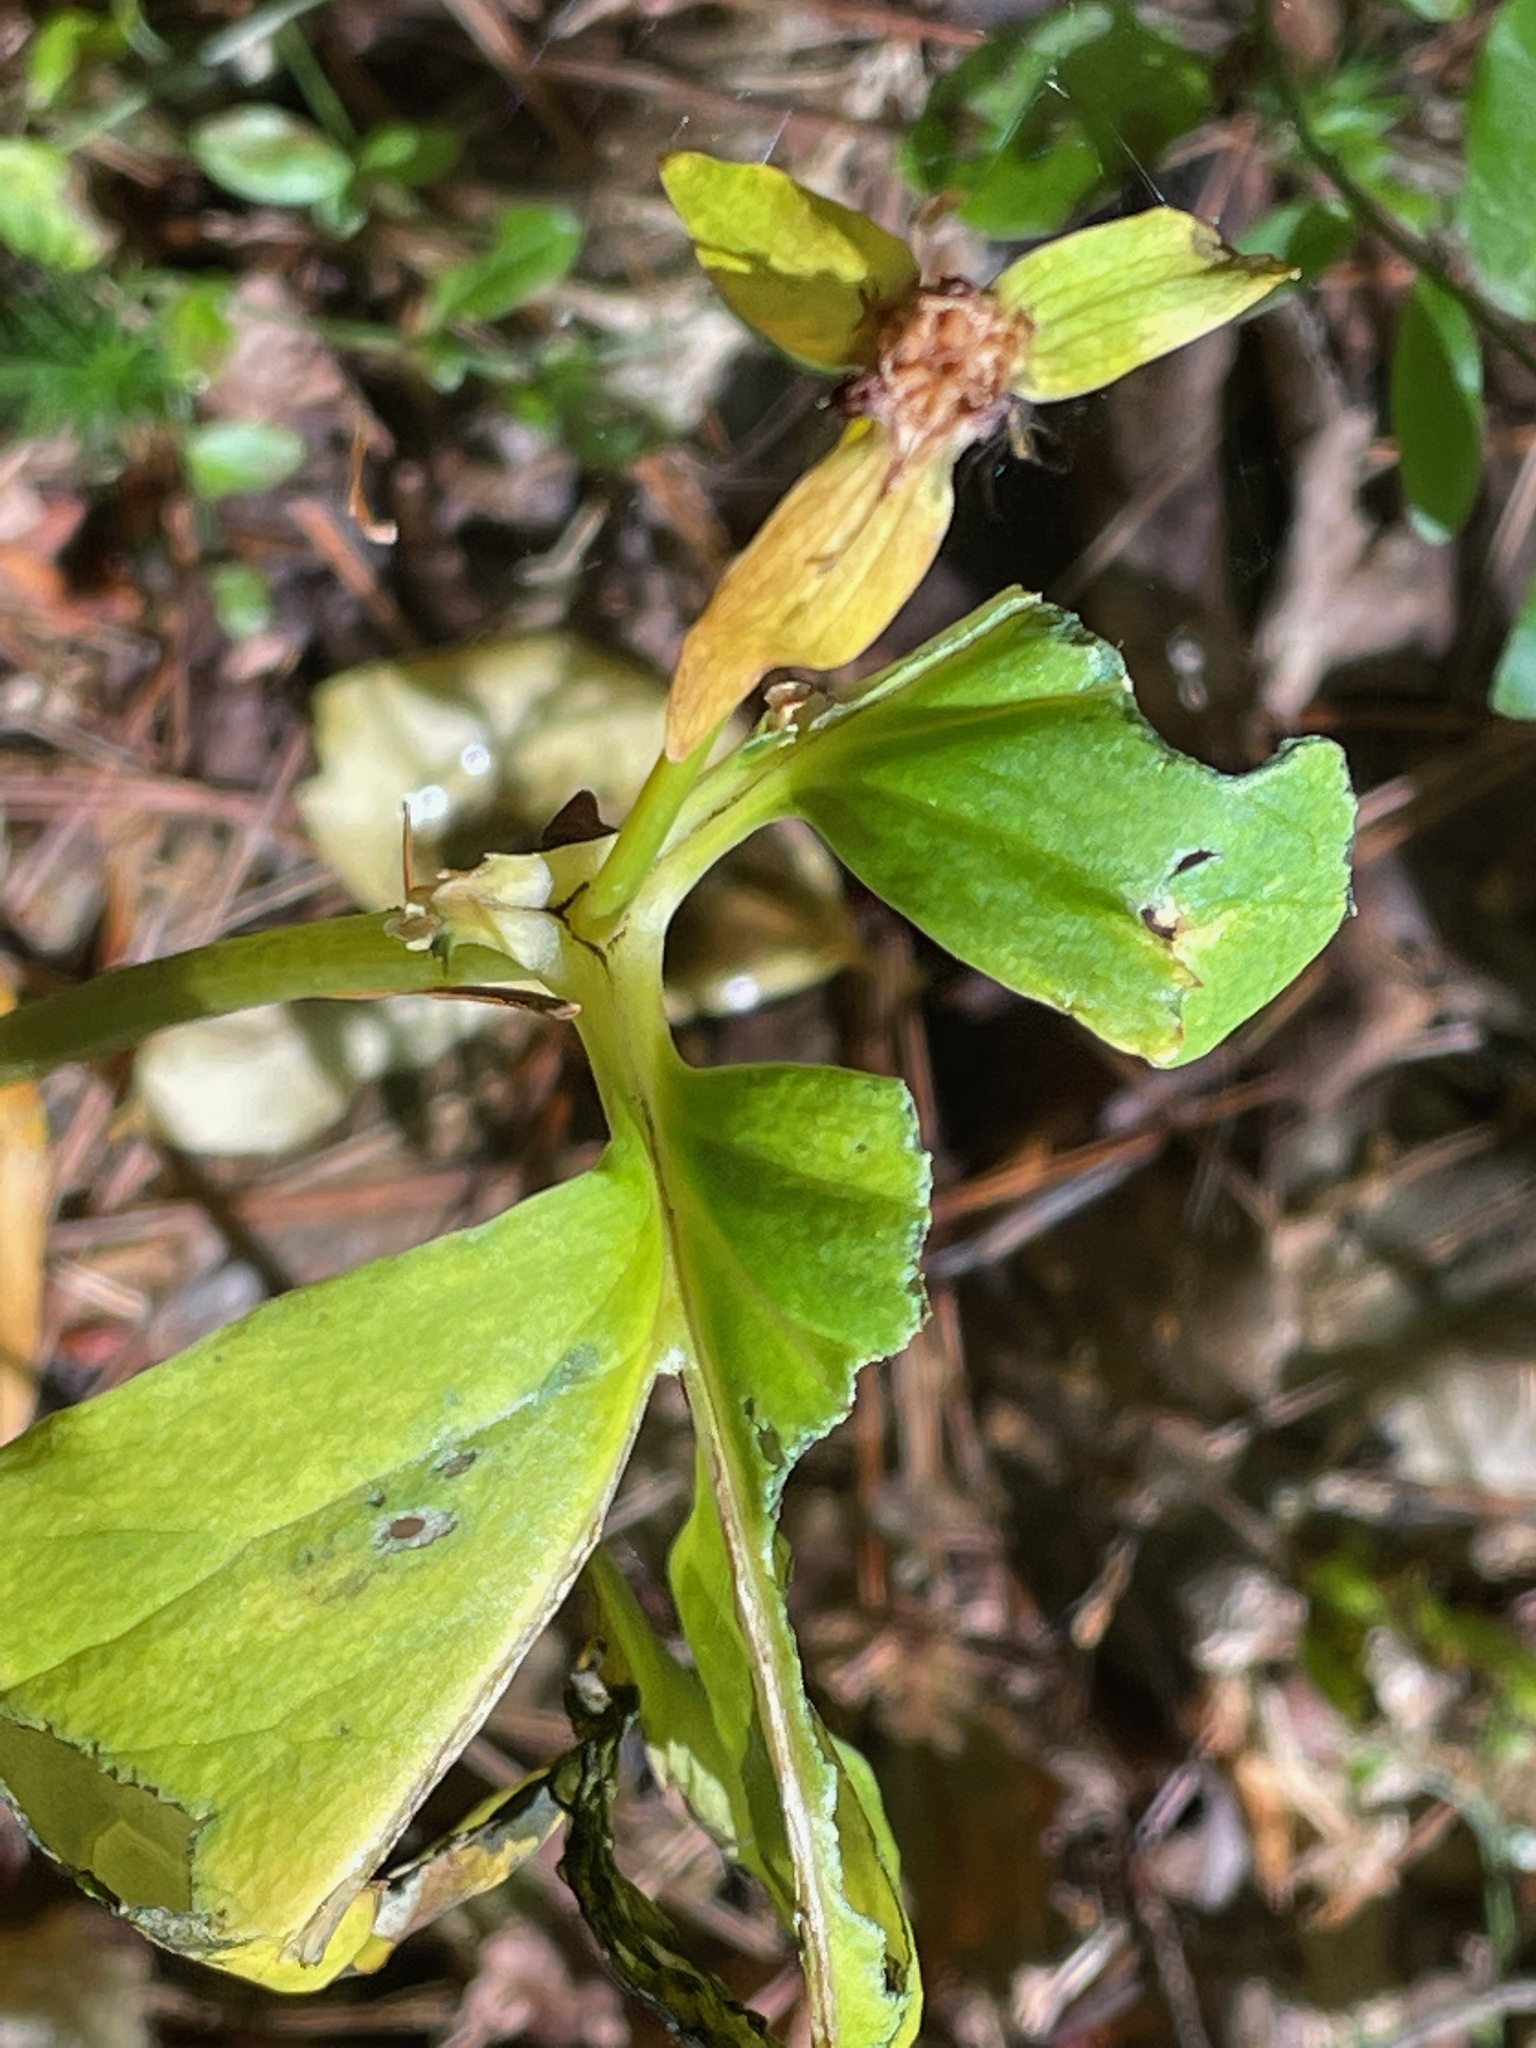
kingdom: Plantae
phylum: Tracheophyta
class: Liliopsida
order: Liliales
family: Melanthiaceae
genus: Trillium
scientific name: Trillium undulatum
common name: Paint trillium
